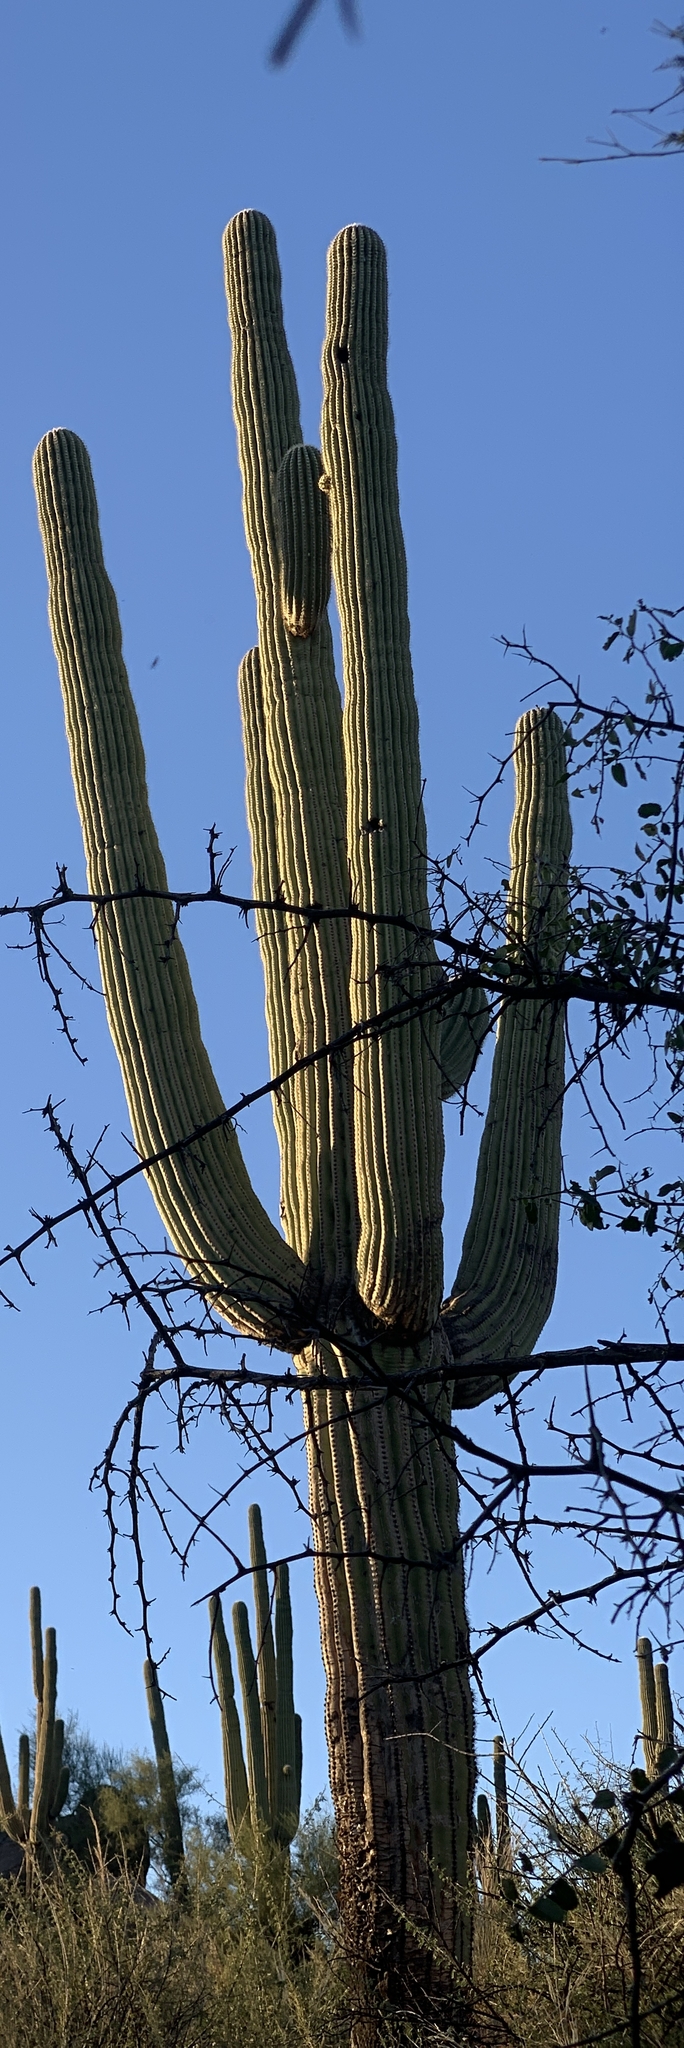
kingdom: Plantae
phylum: Tracheophyta
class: Magnoliopsida
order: Caryophyllales
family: Cactaceae
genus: Carnegiea
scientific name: Carnegiea gigantea
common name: Saguaro
